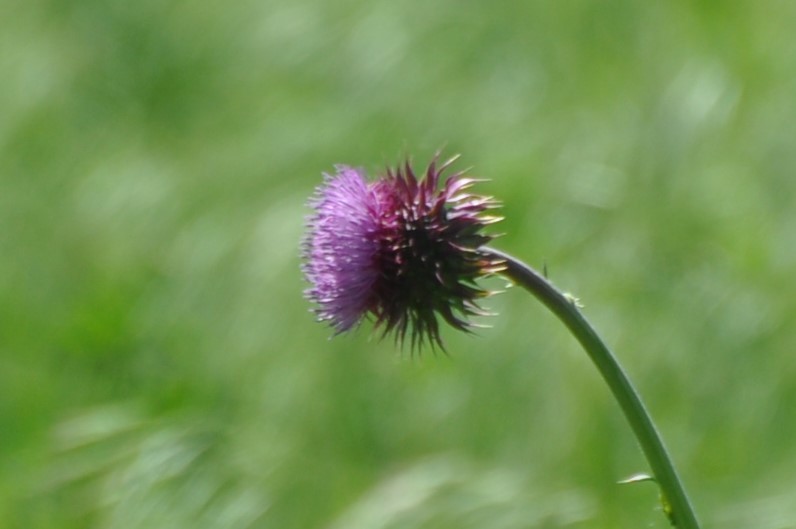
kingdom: Plantae
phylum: Tracheophyta
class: Magnoliopsida
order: Asterales
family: Asteraceae
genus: Carduus
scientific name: Carduus nutans
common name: Musk thistle
